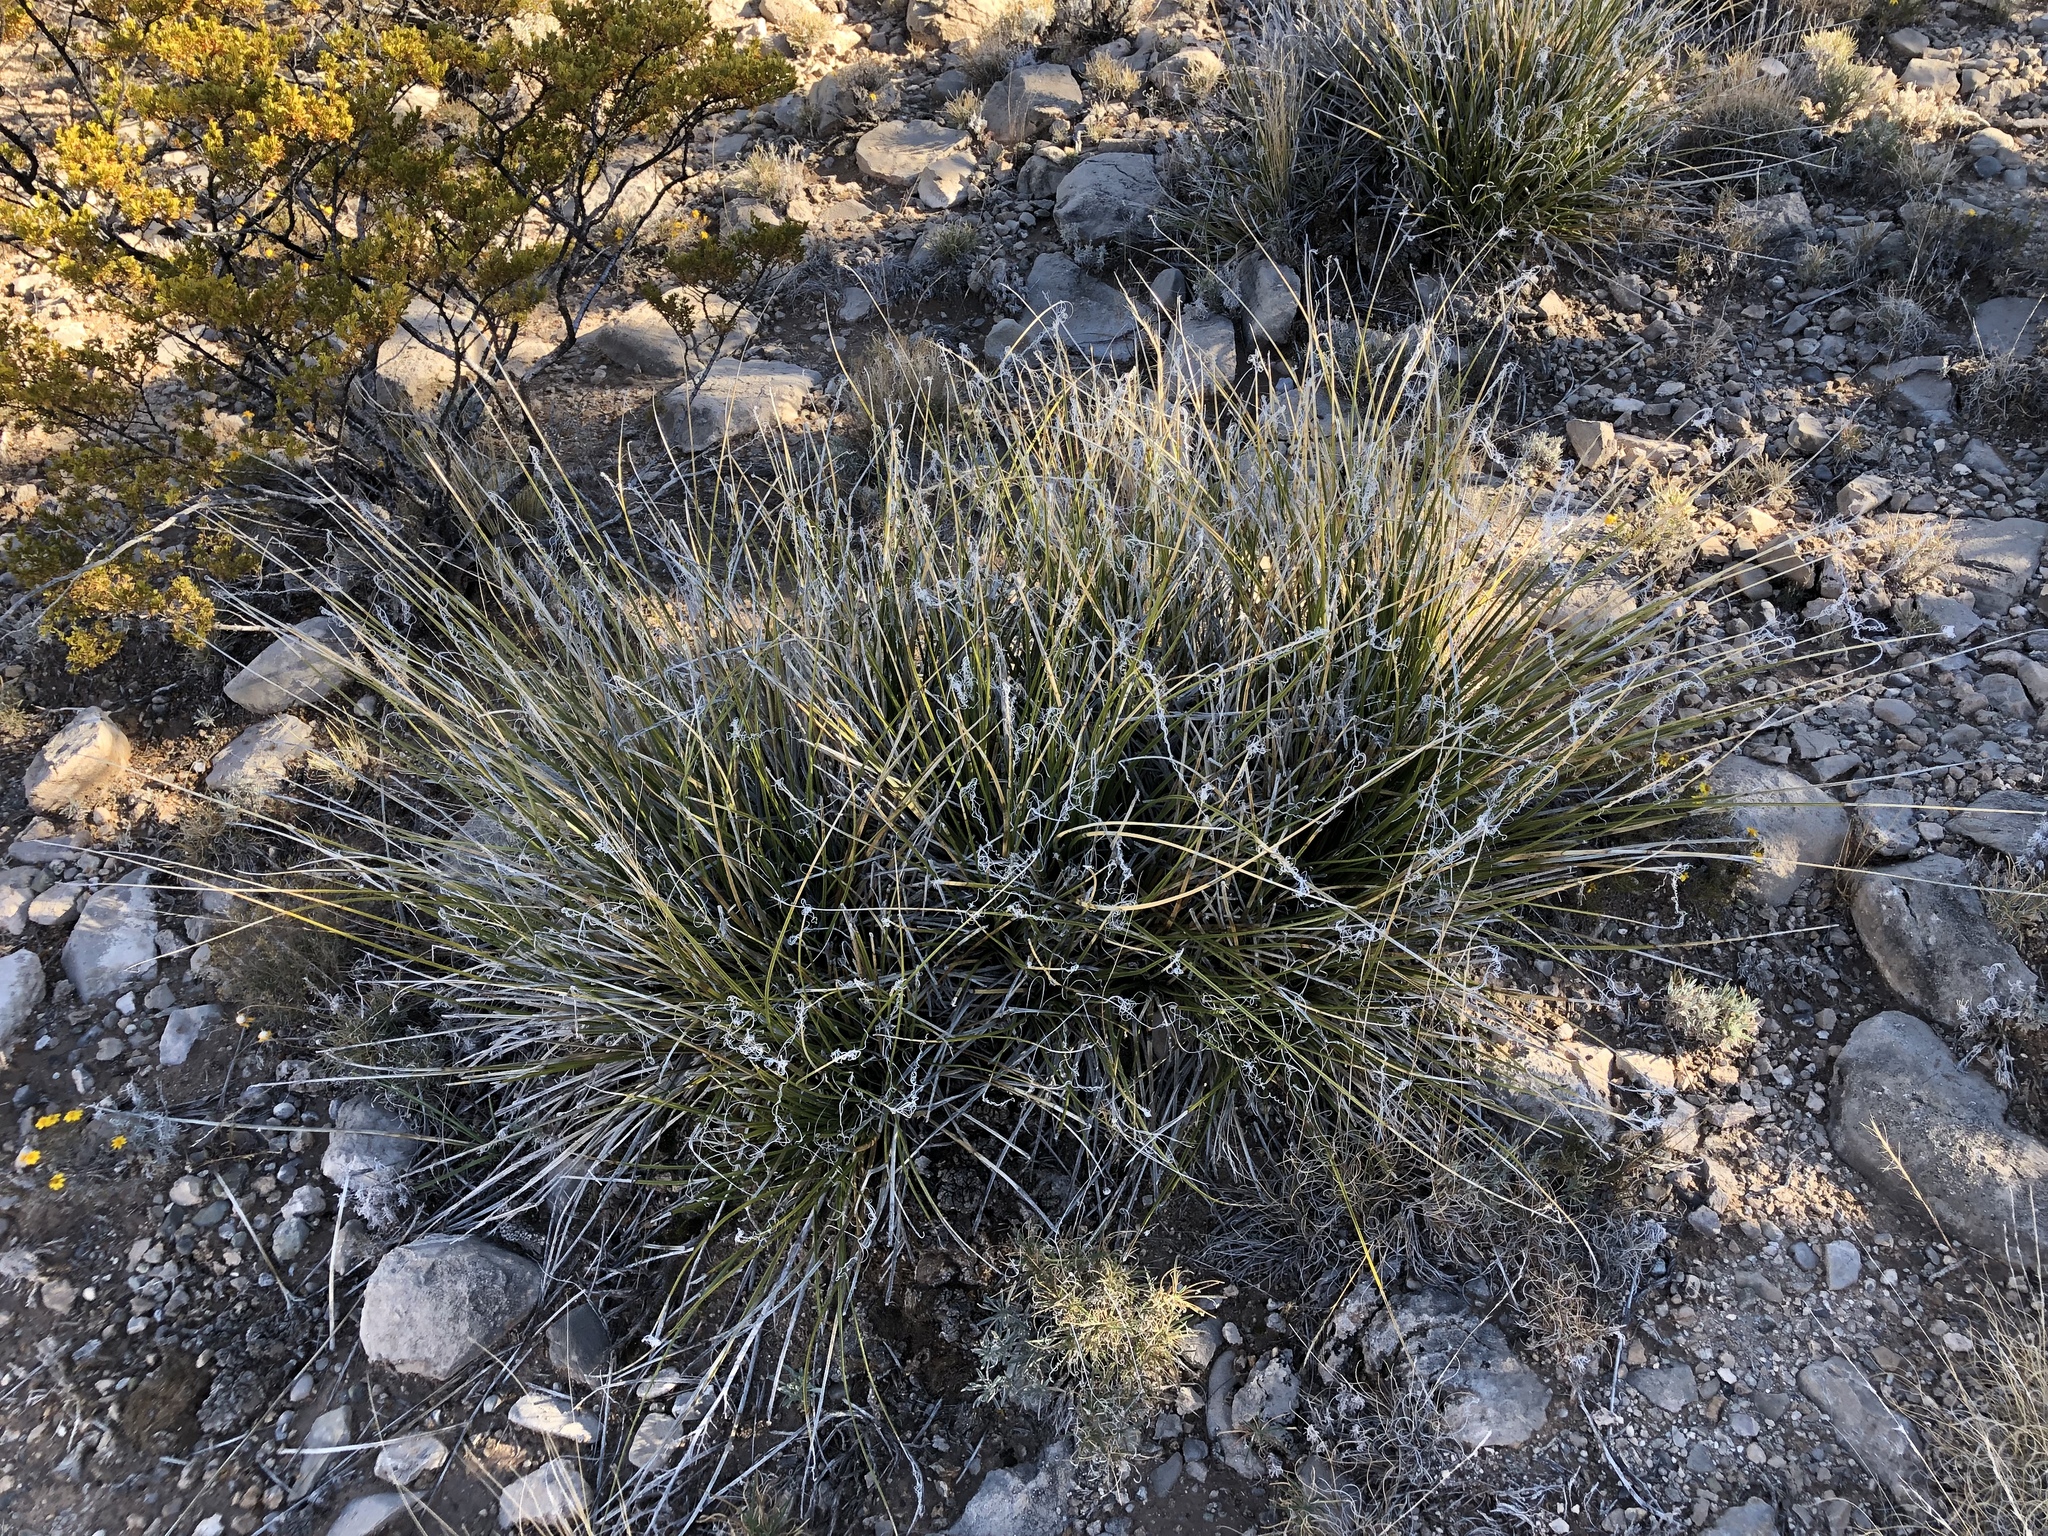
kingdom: Plantae
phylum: Tracheophyta
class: Liliopsida
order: Asparagales
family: Asparagaceae
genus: Nolina
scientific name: Nolina microcarpa
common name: Bear-grass
